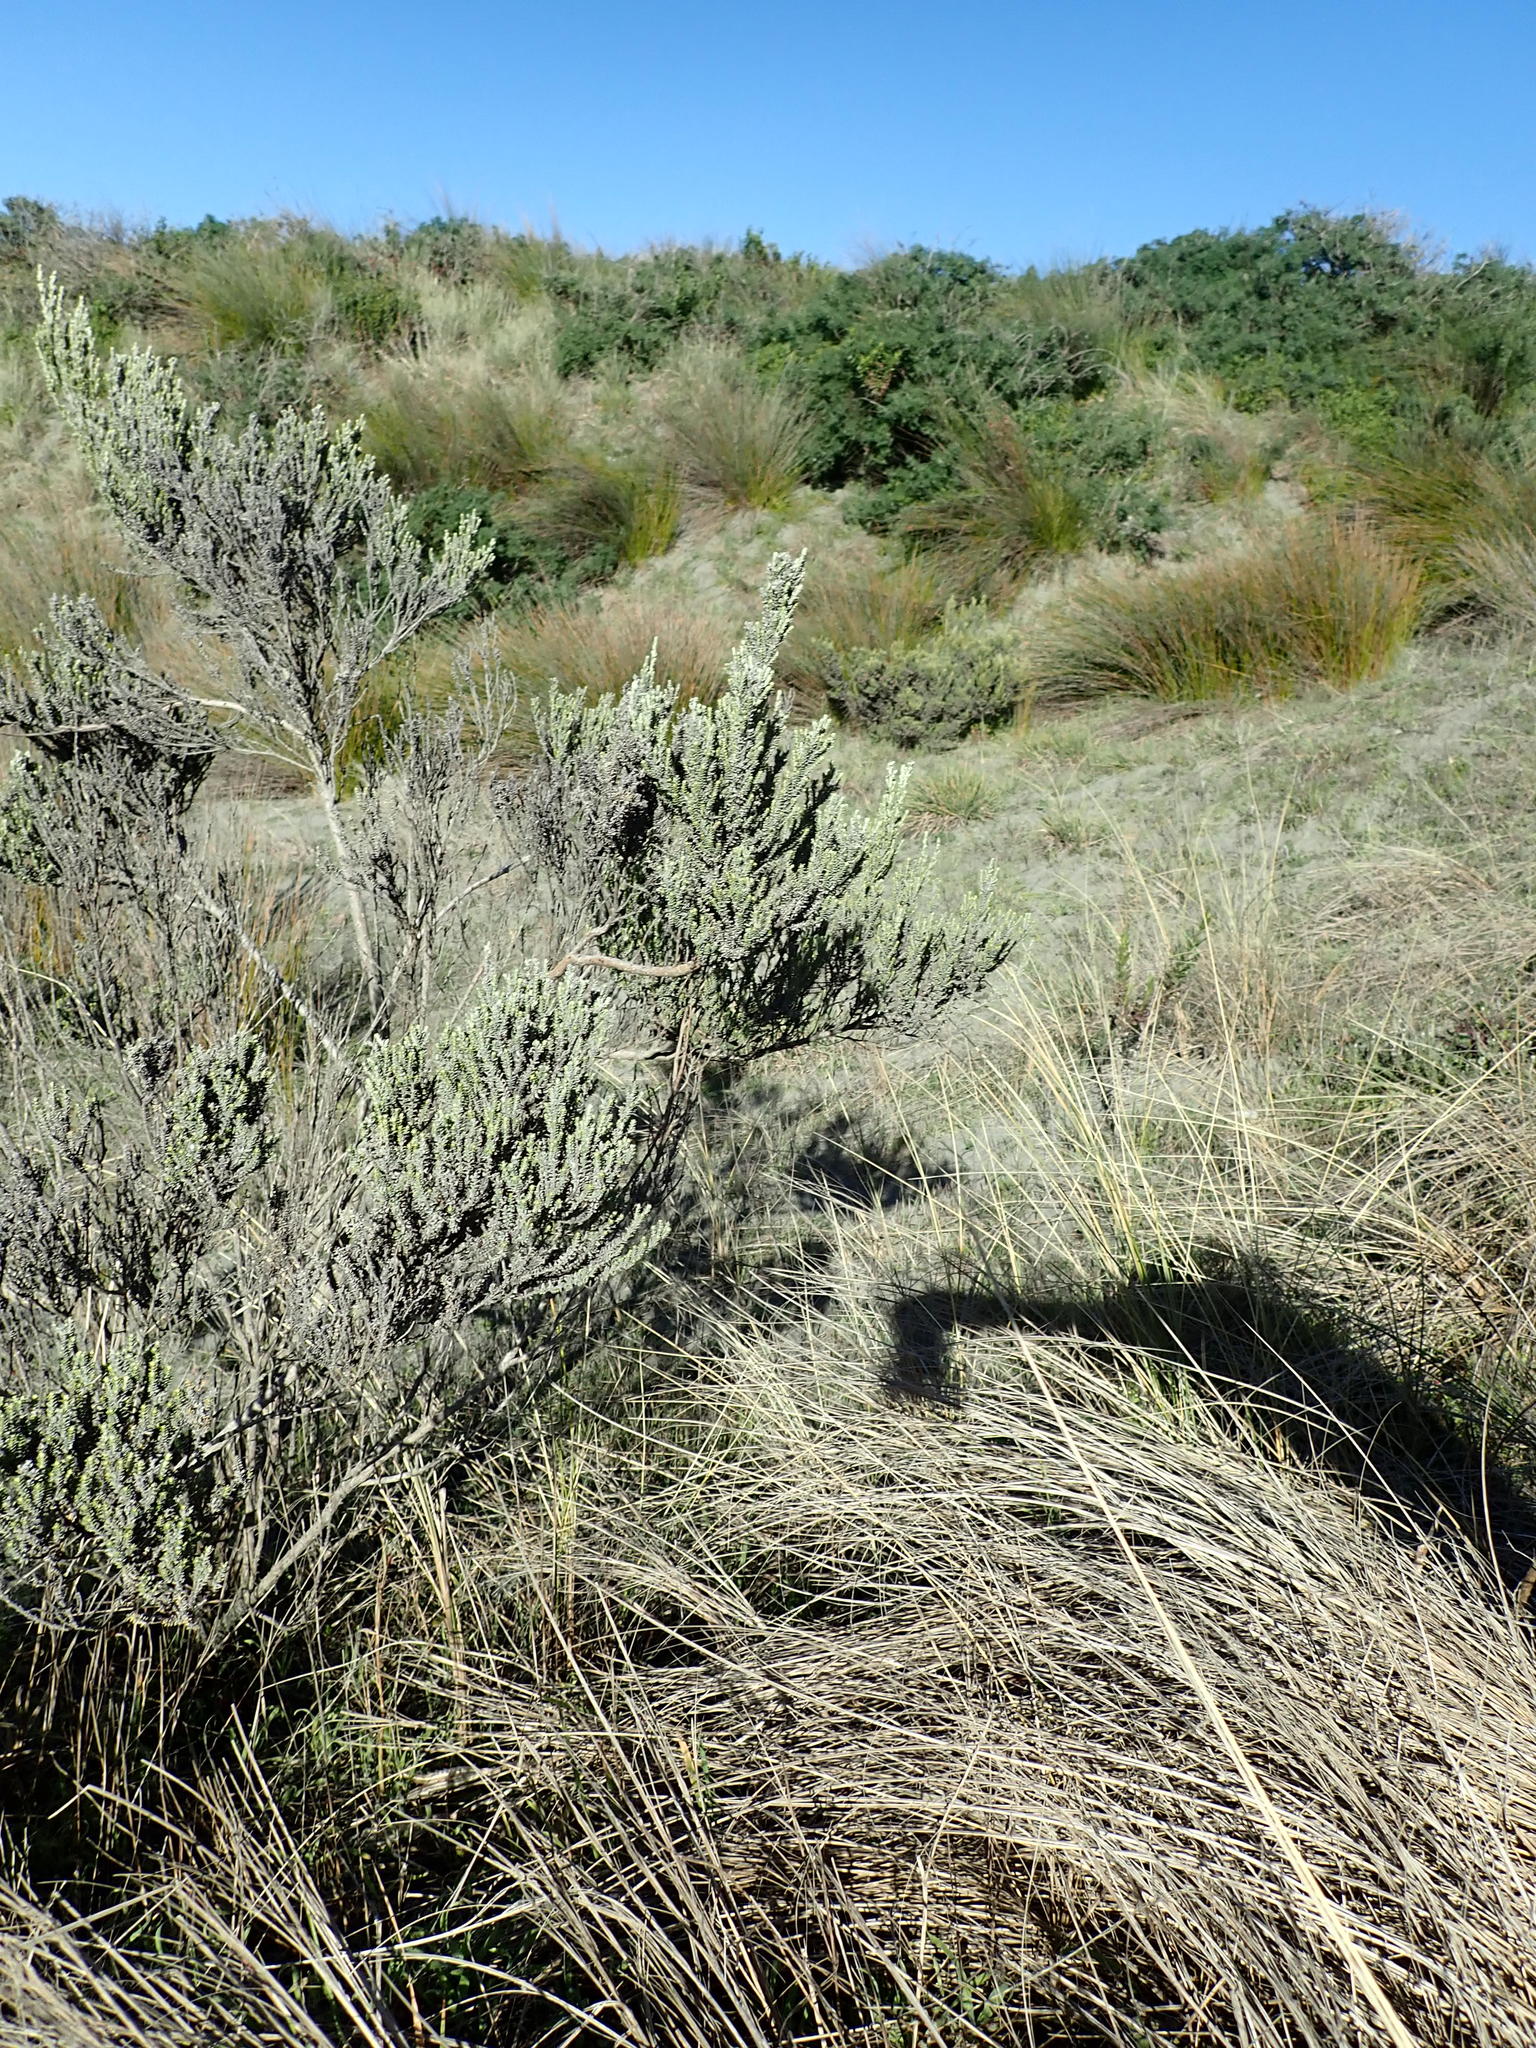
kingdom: Plantae
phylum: Tracheophyta
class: Magnoliopsida
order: Asterales
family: Asteraceae
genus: Ozothamnus
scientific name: Ozothamnus leptophyllus
